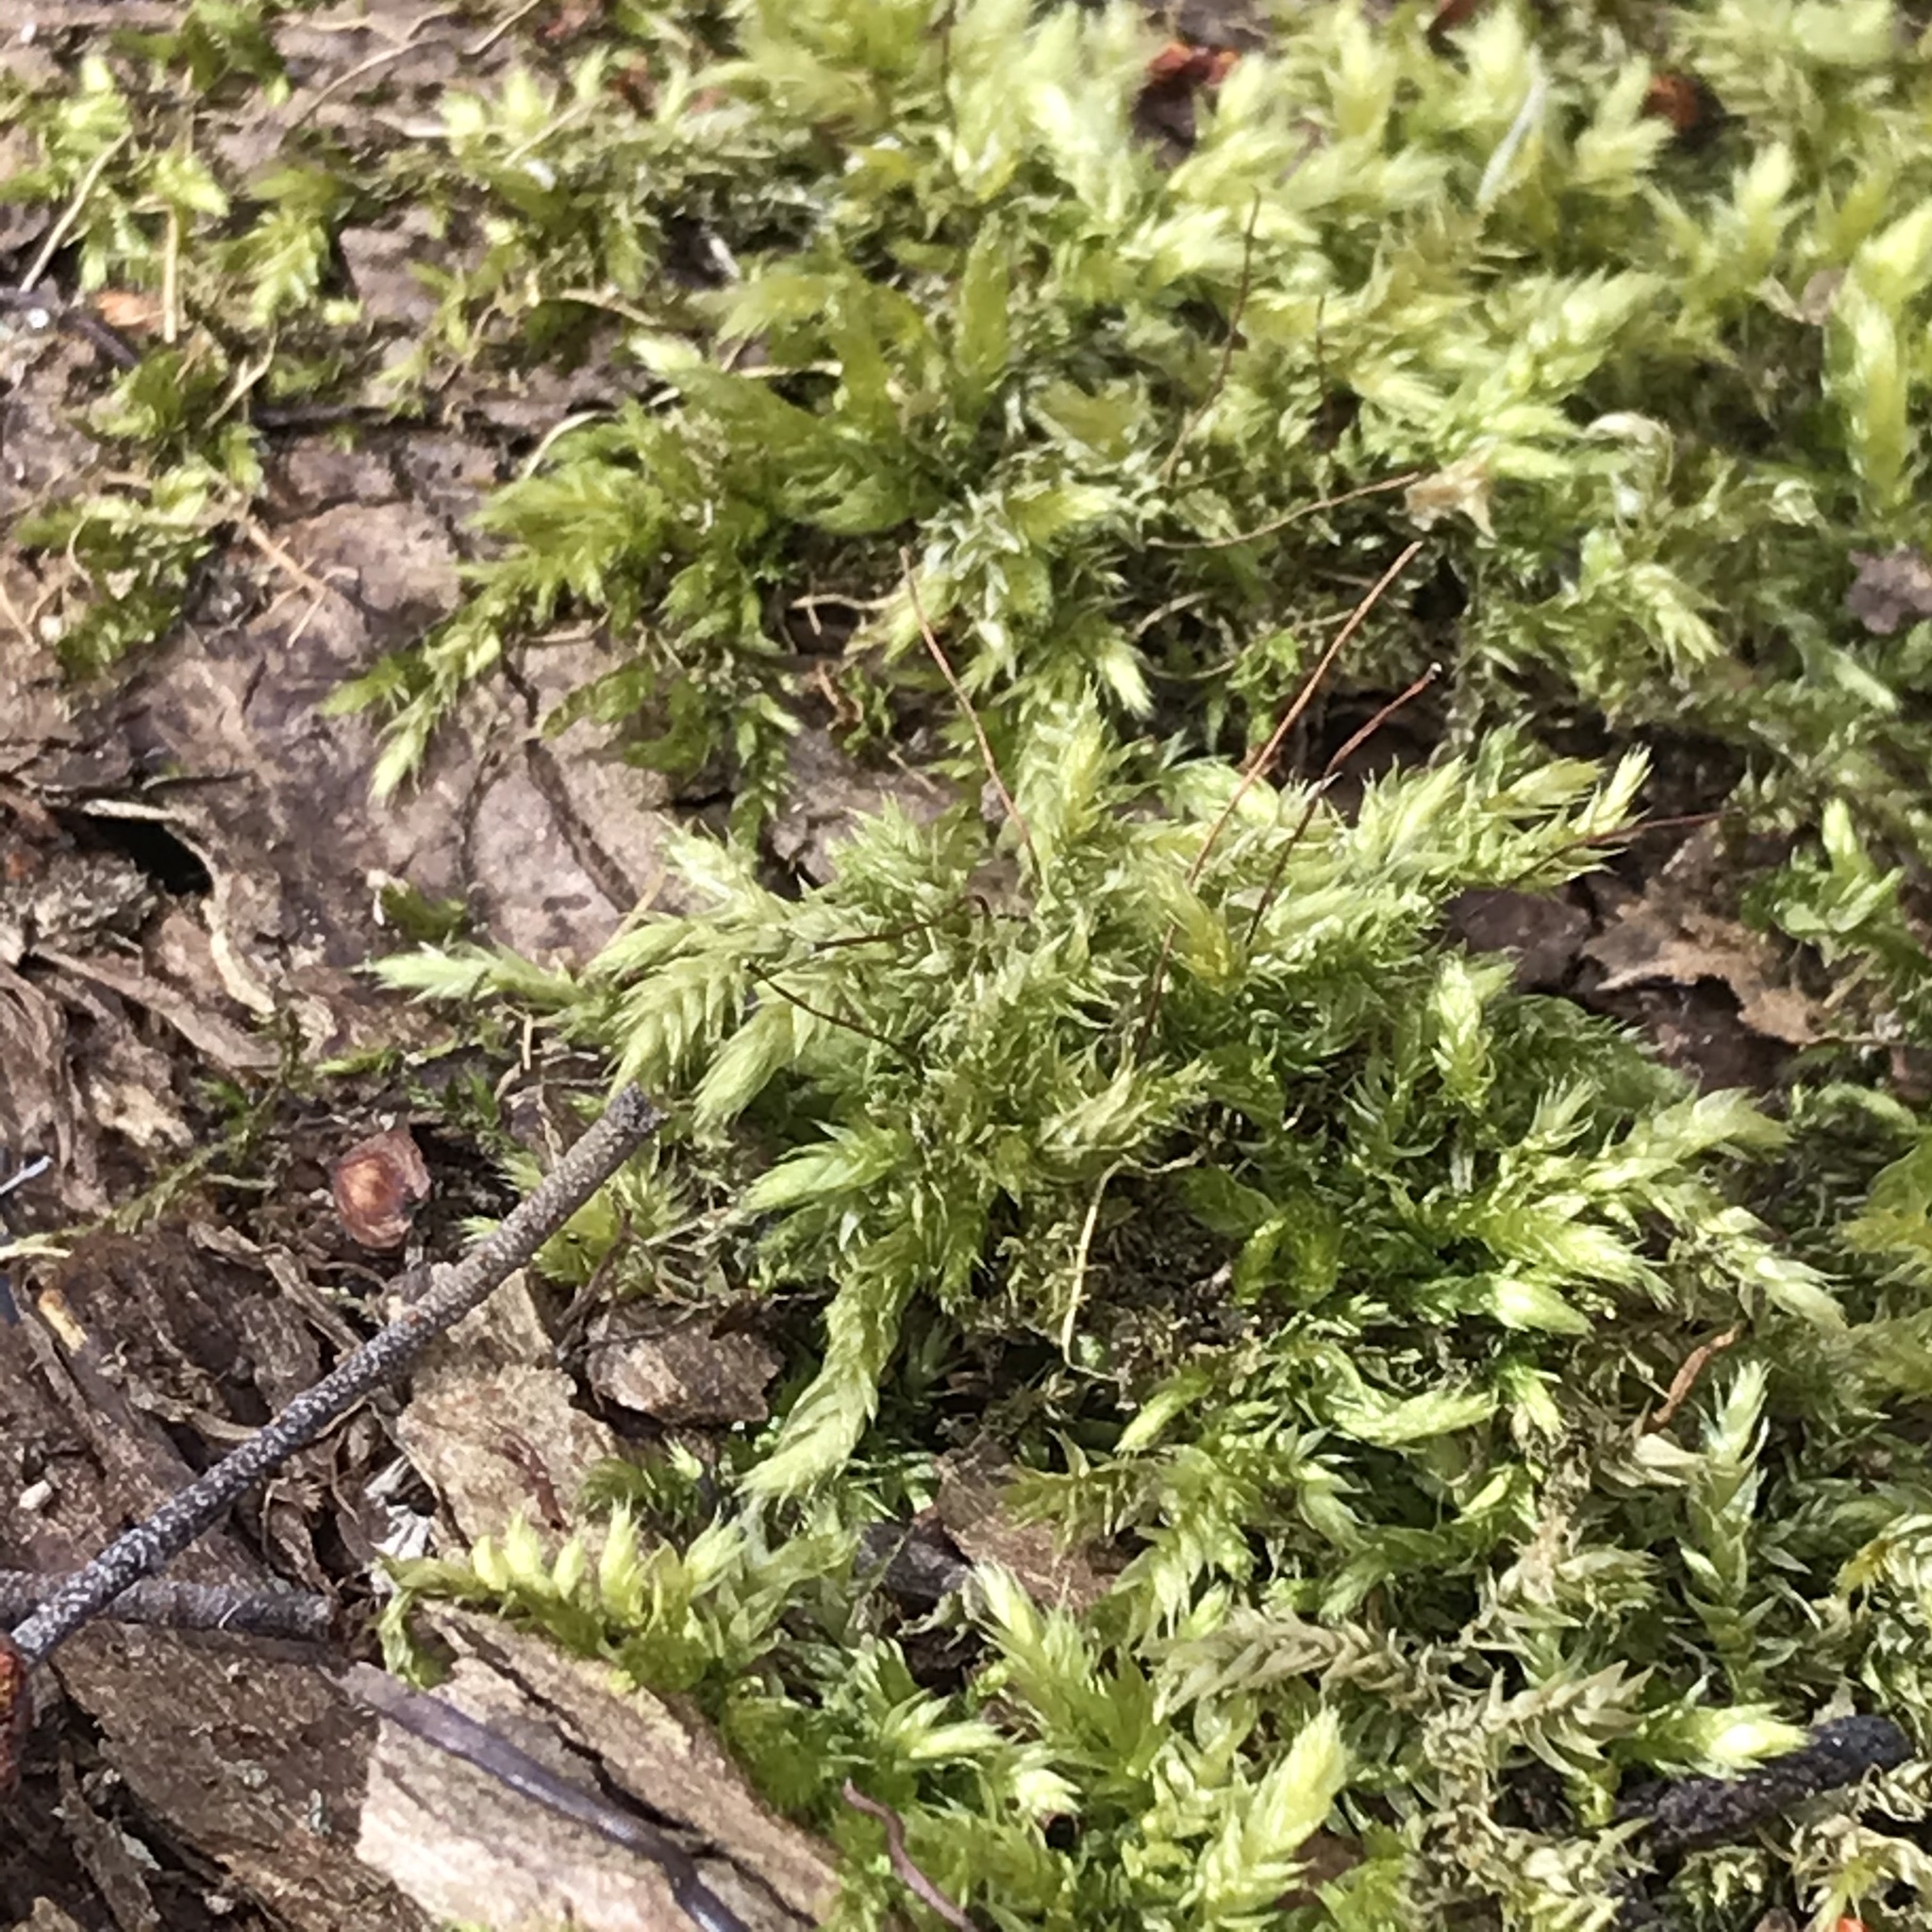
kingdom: Plantae
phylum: Bryophyta
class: Bryopsida
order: Hypnales
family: Brachytheciaceae
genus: Brachythecium
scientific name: Brachythecium rutabulum
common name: Rough-stalked feather-moss
